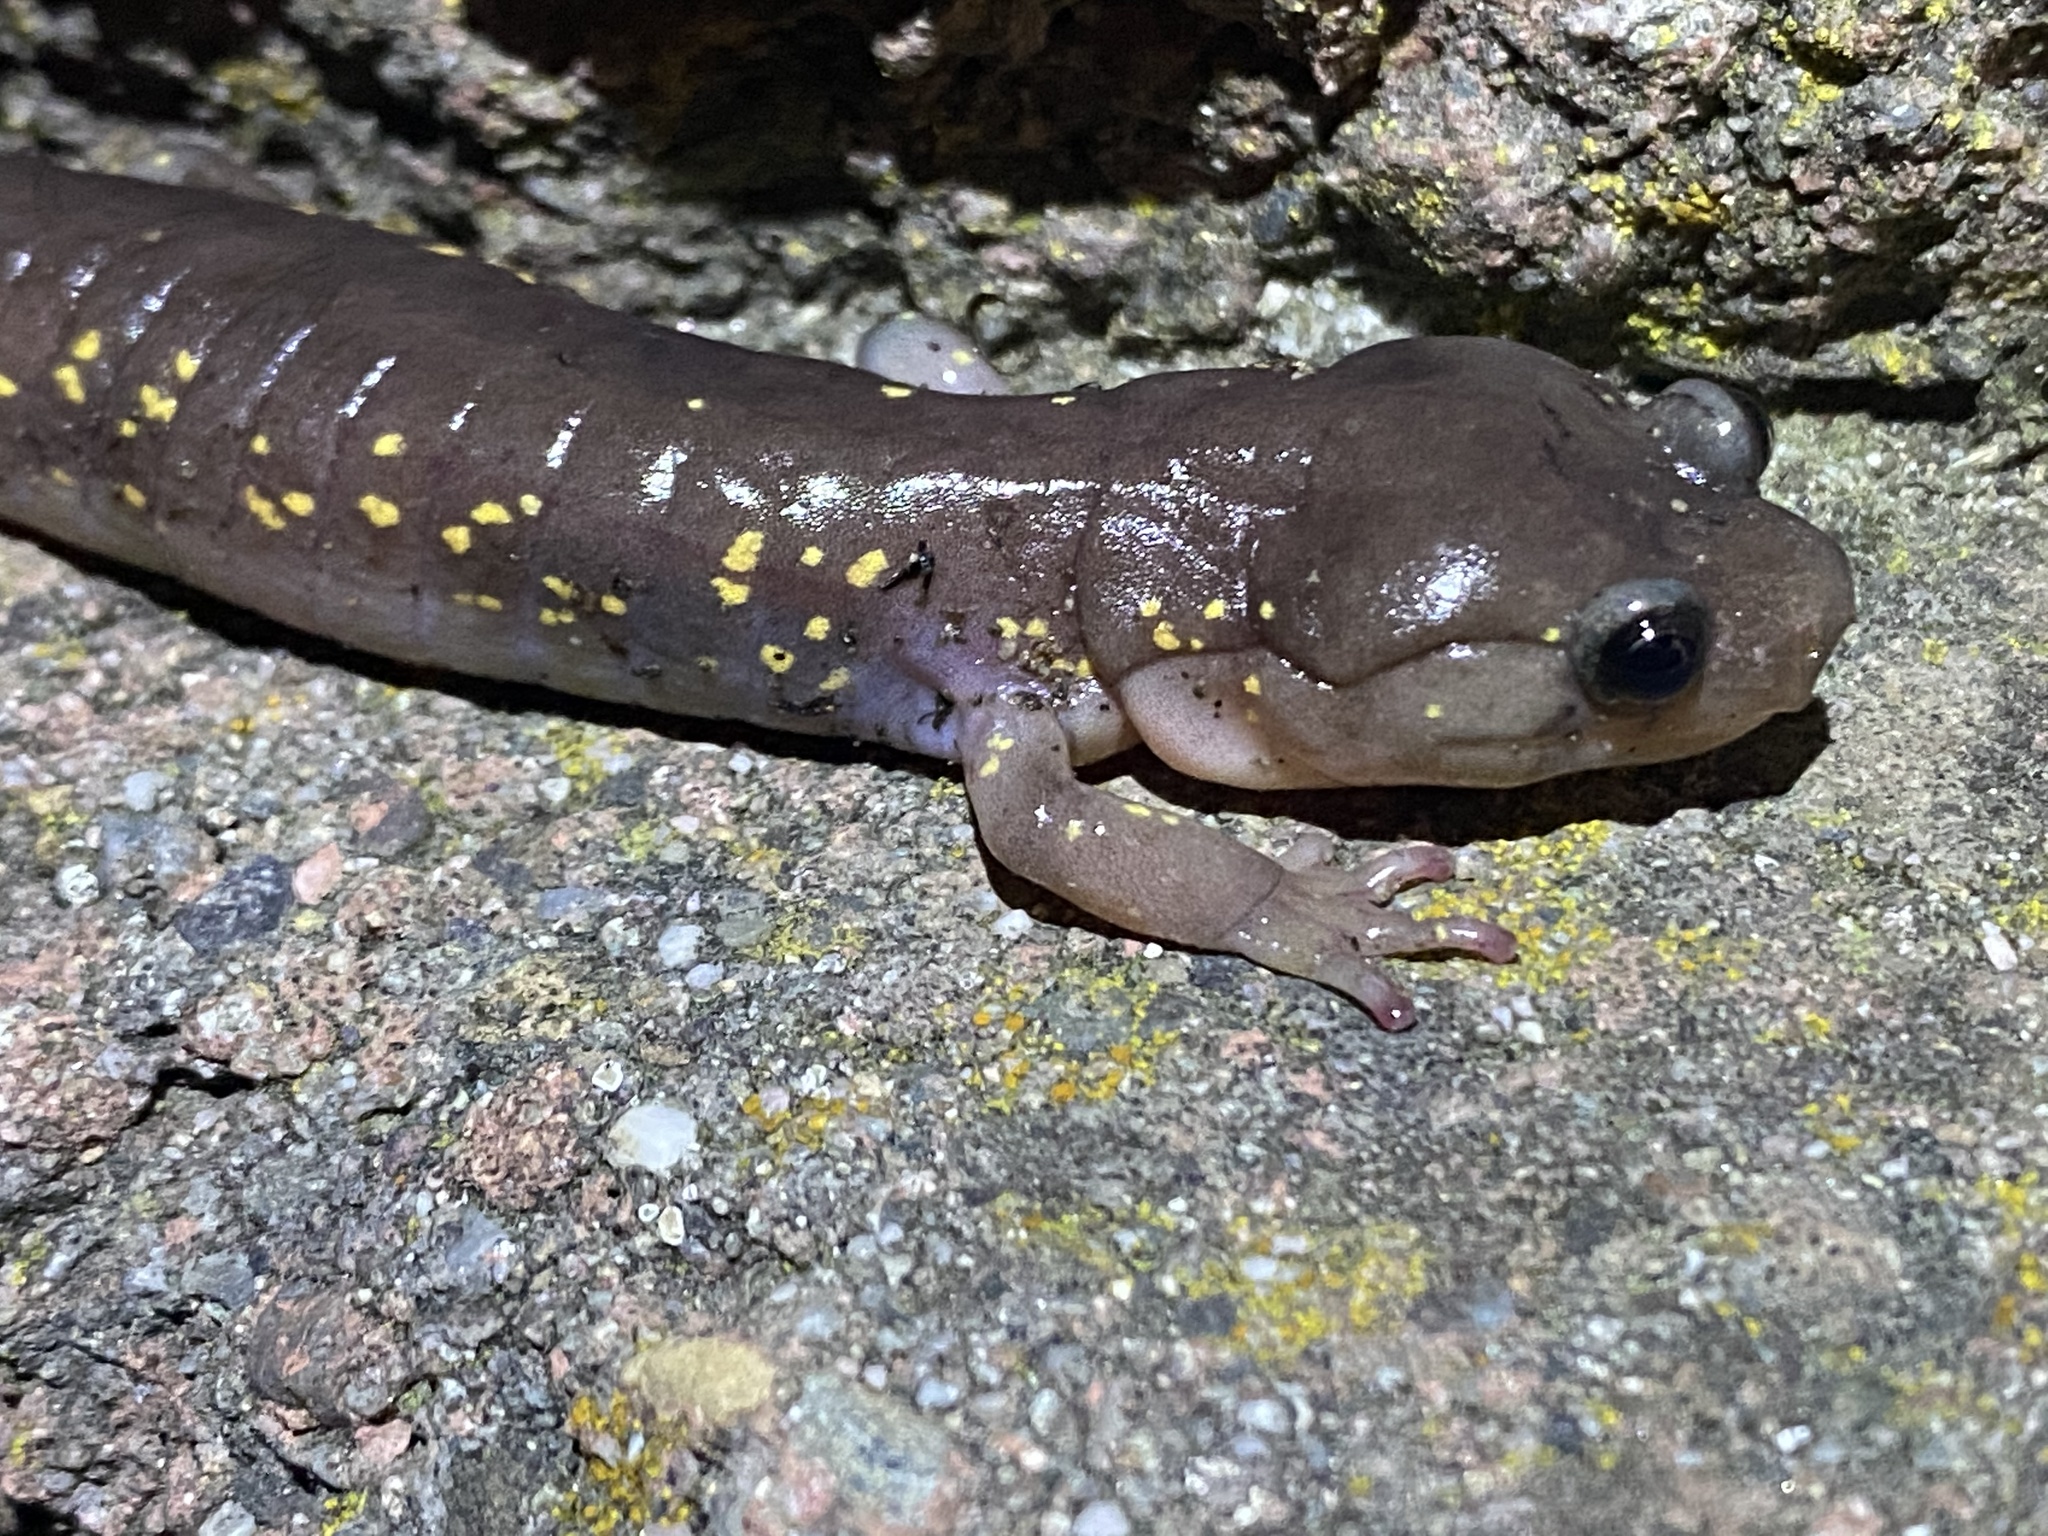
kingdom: Animalia
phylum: Chordata
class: Amphibia
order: Caudata
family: Plethodontidae
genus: Aneides
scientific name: Aneides lugubris
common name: Arboreal salamander
